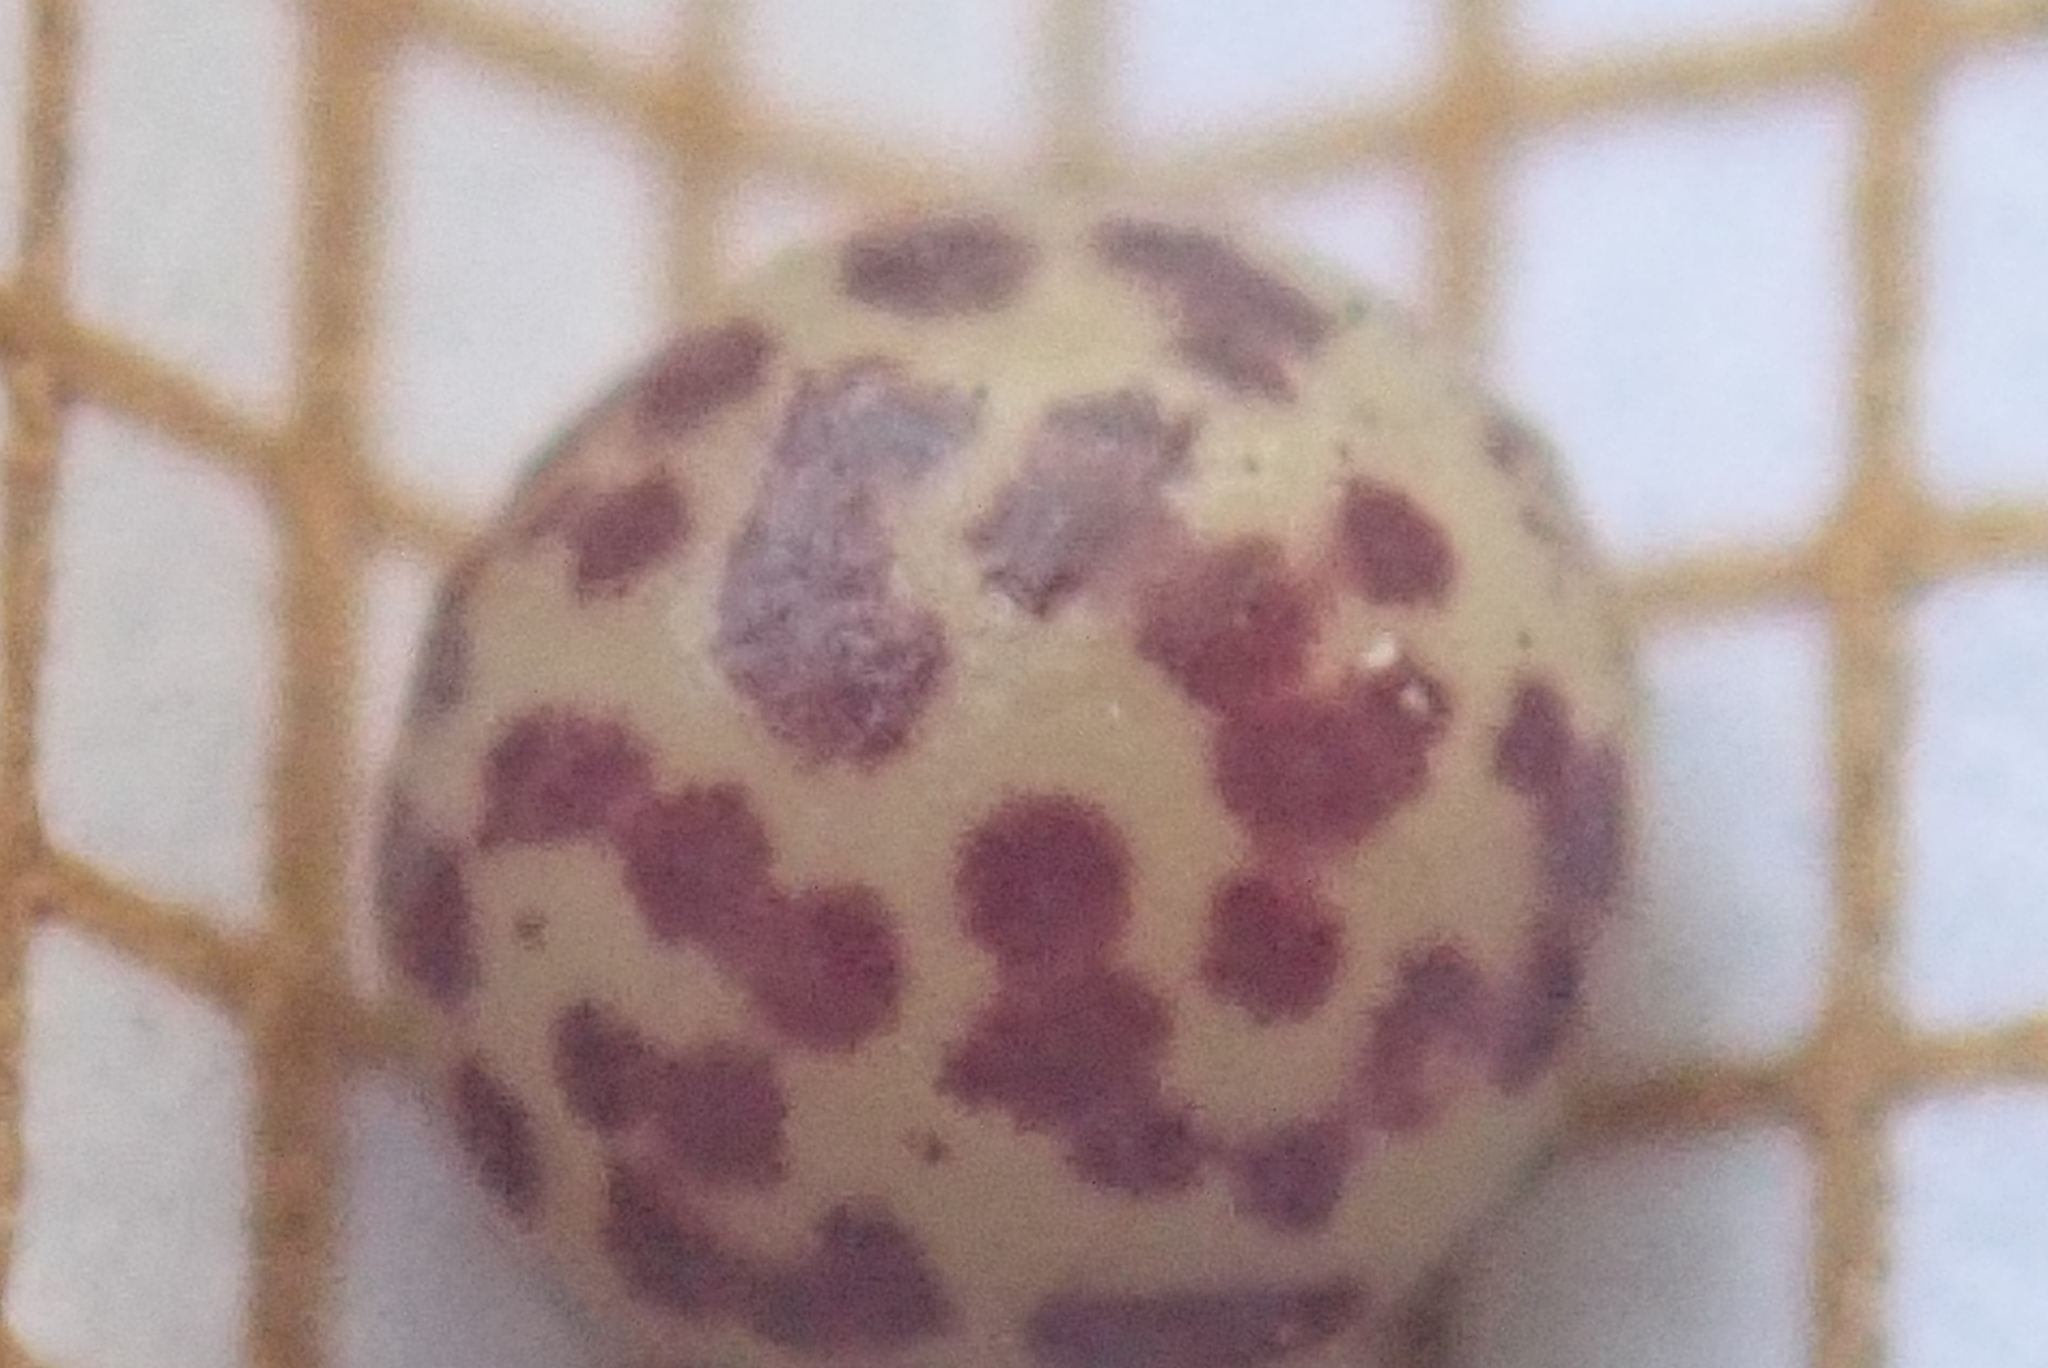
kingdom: Animalia
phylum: Arthropoda
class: Insecta
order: Hymenoptera
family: Cynipidae
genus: Neuroterus
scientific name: Neuroterus anthracinus
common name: Oyster gall
